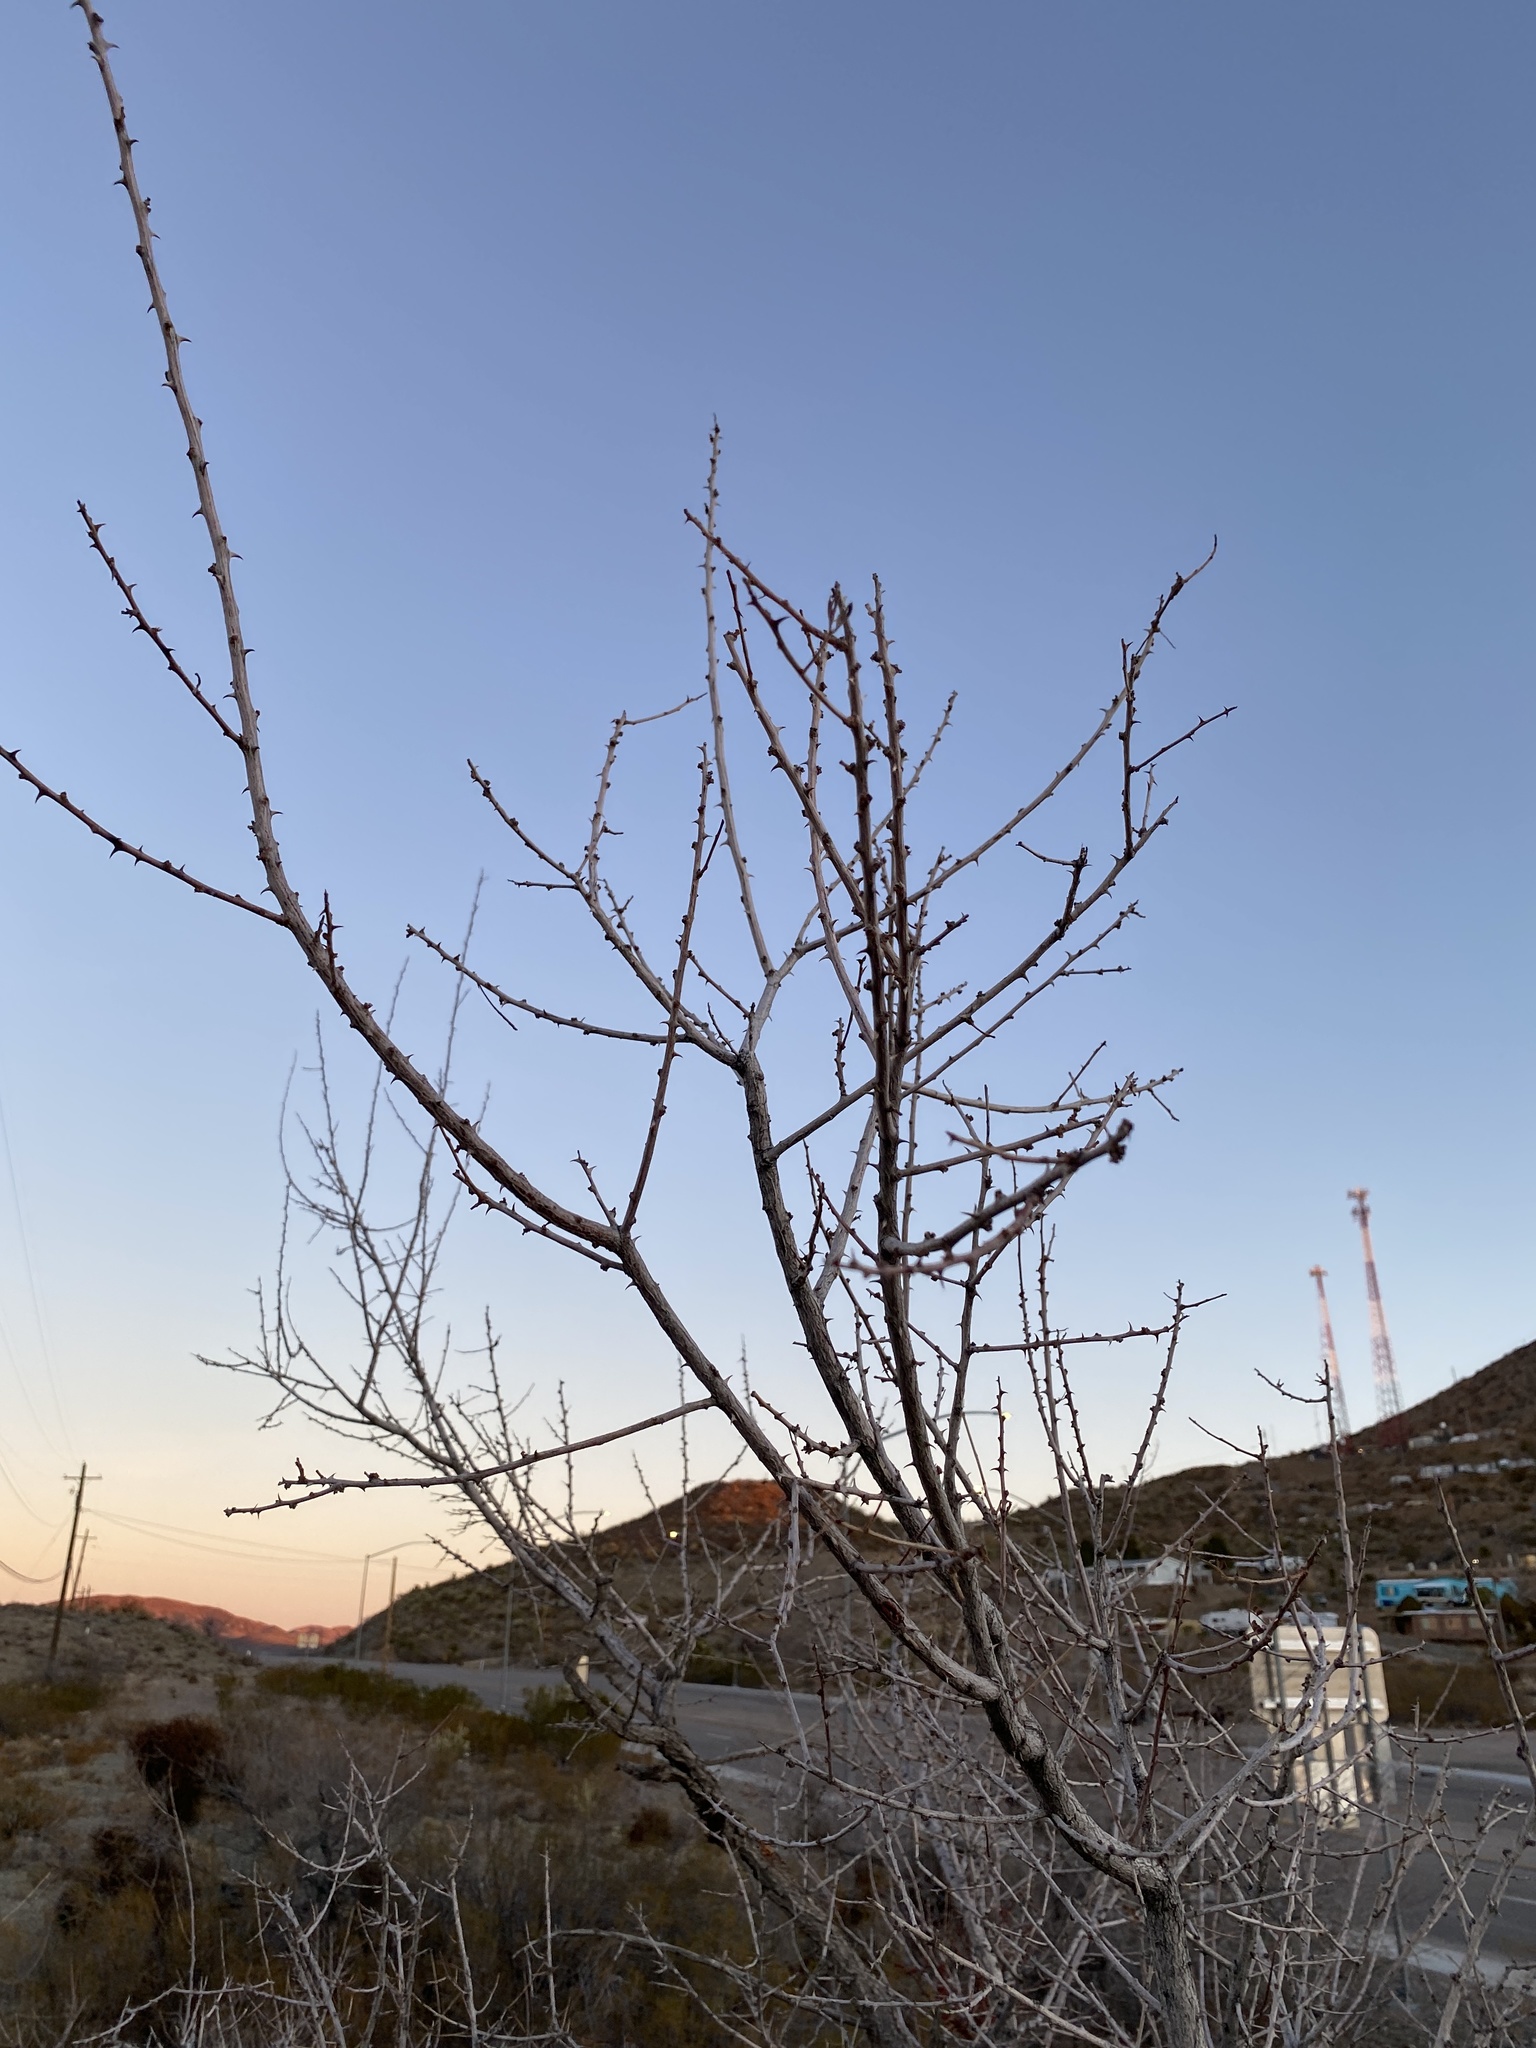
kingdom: Plantae
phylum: Tracheophyta
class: Magnoliopsida
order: Fabales
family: Fabaceae
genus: Senegalia
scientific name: Senegalia greggii
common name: Texas-mimosa
